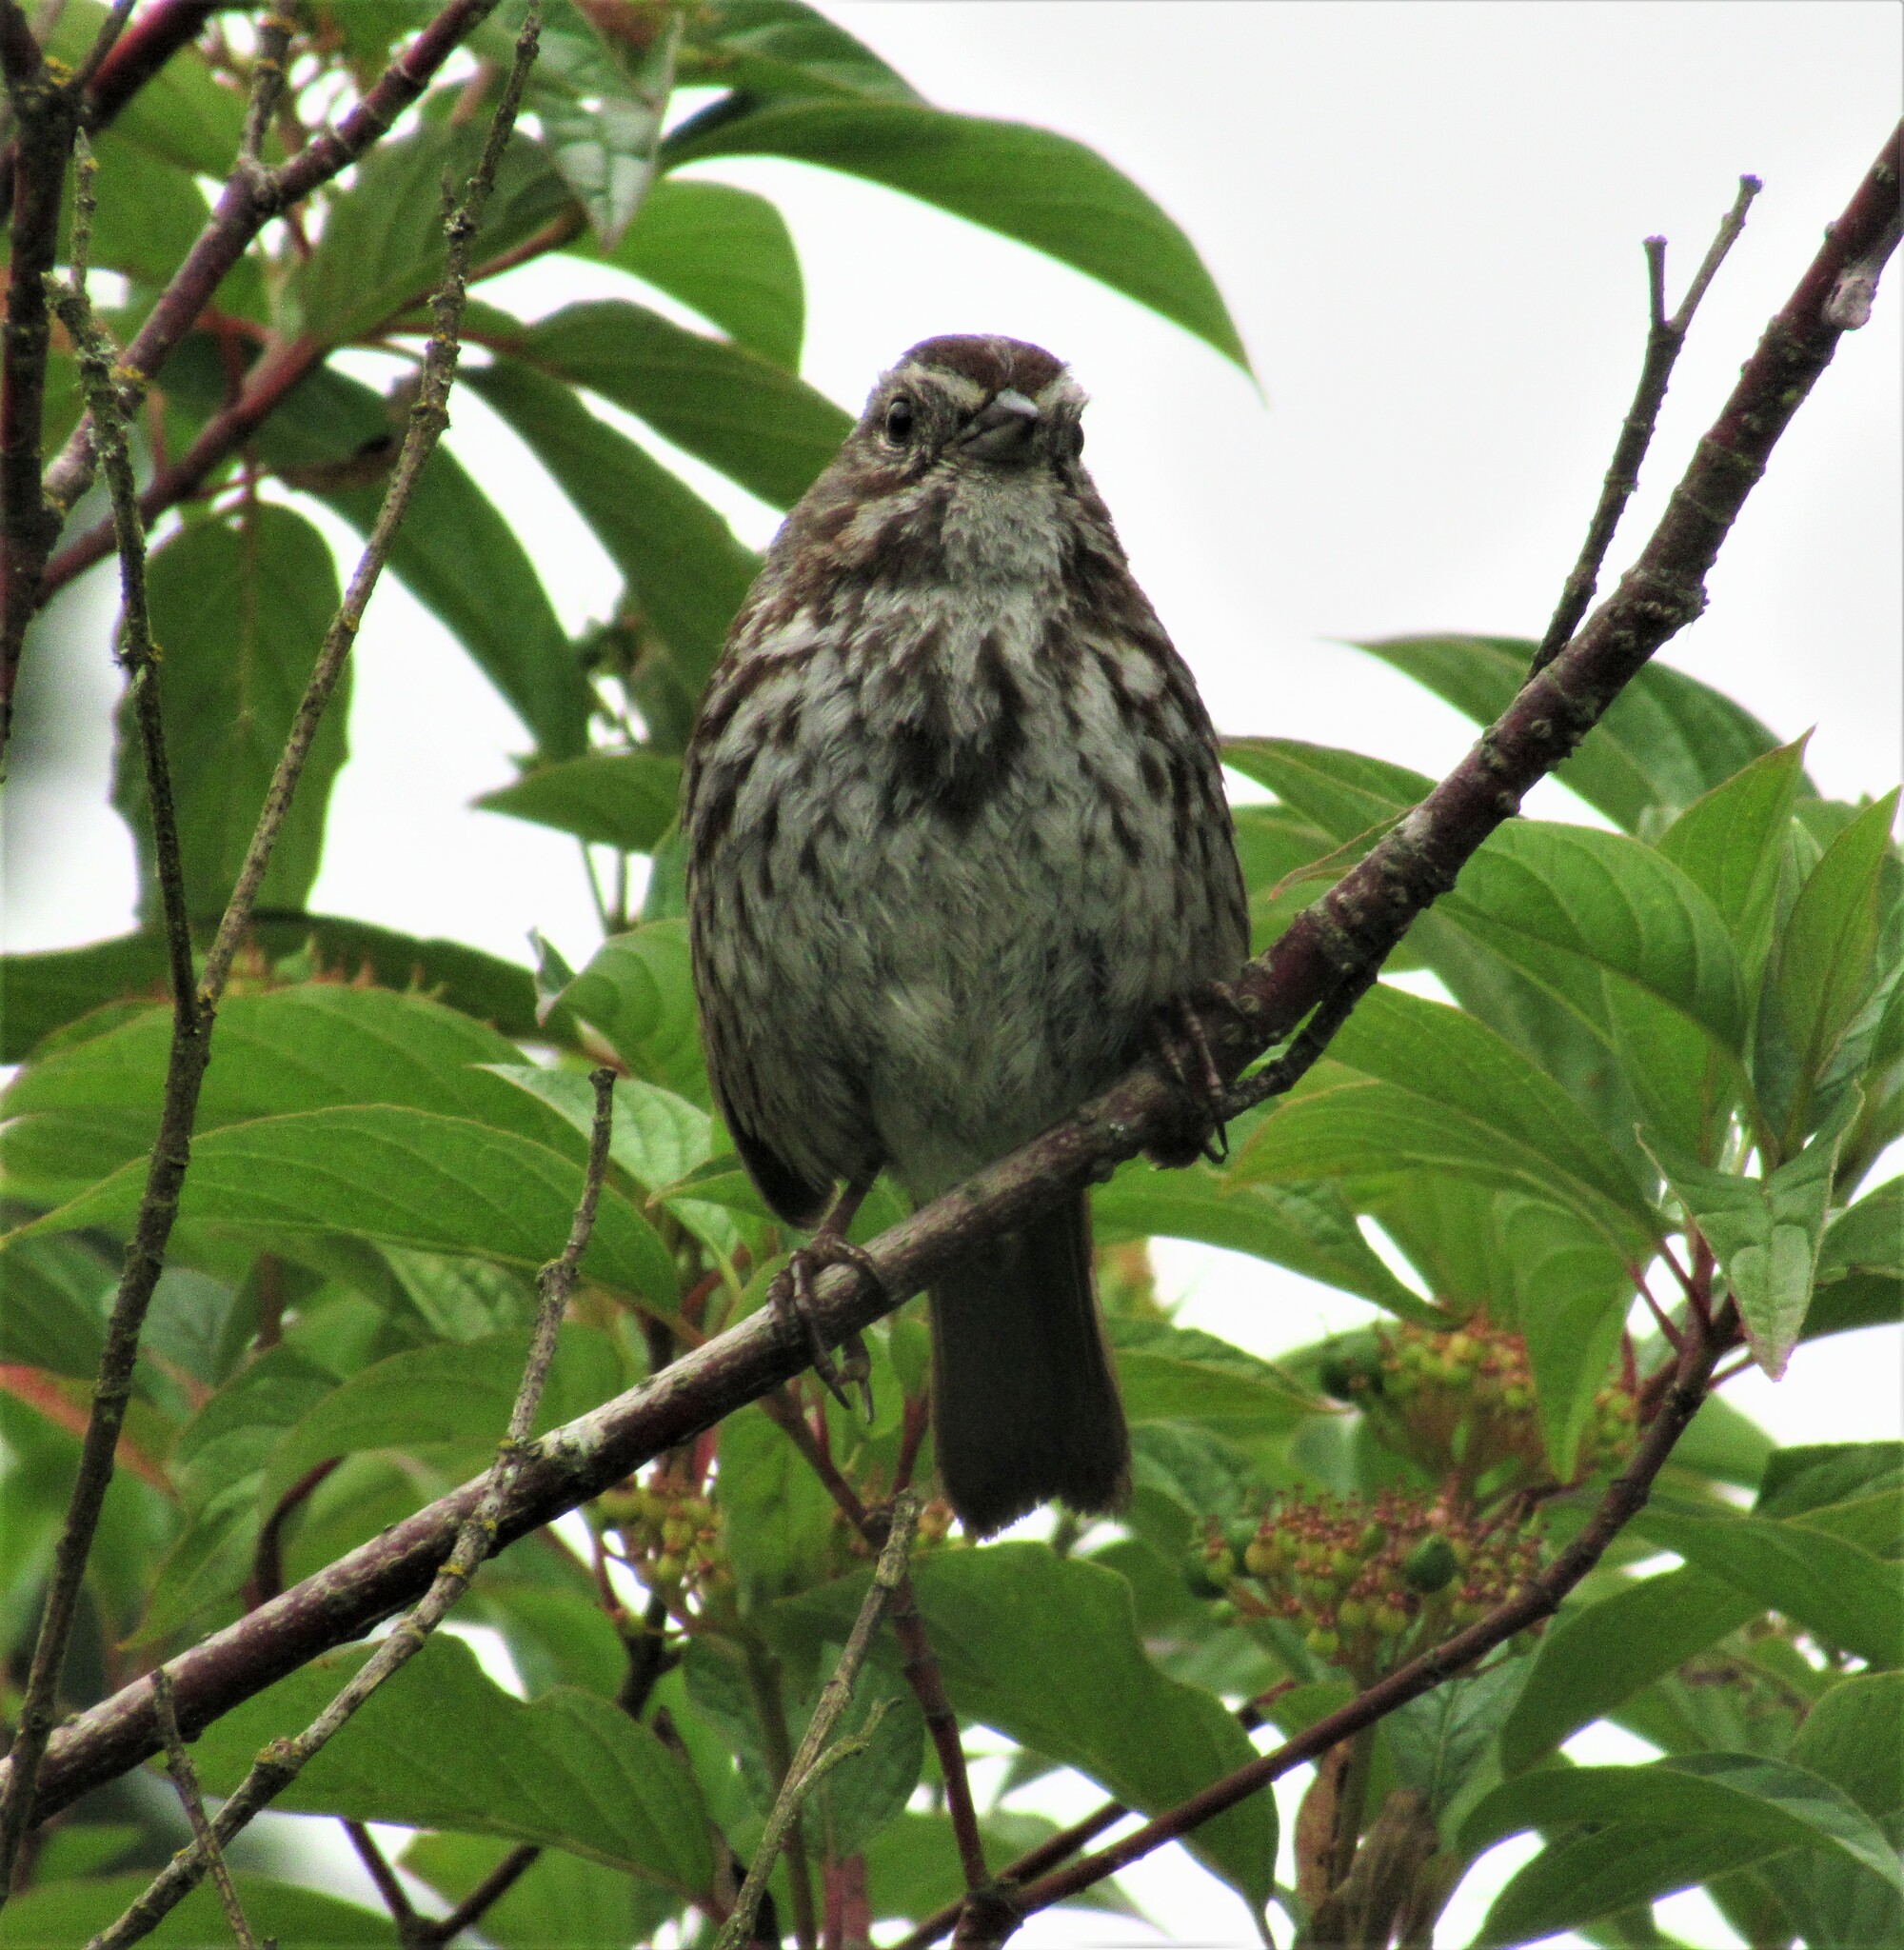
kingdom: Animalia
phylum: Chordata
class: Aves
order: Passeriformes
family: Passerellidae
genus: Melospiza
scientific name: Melospiza melodia
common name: Song sparrow
